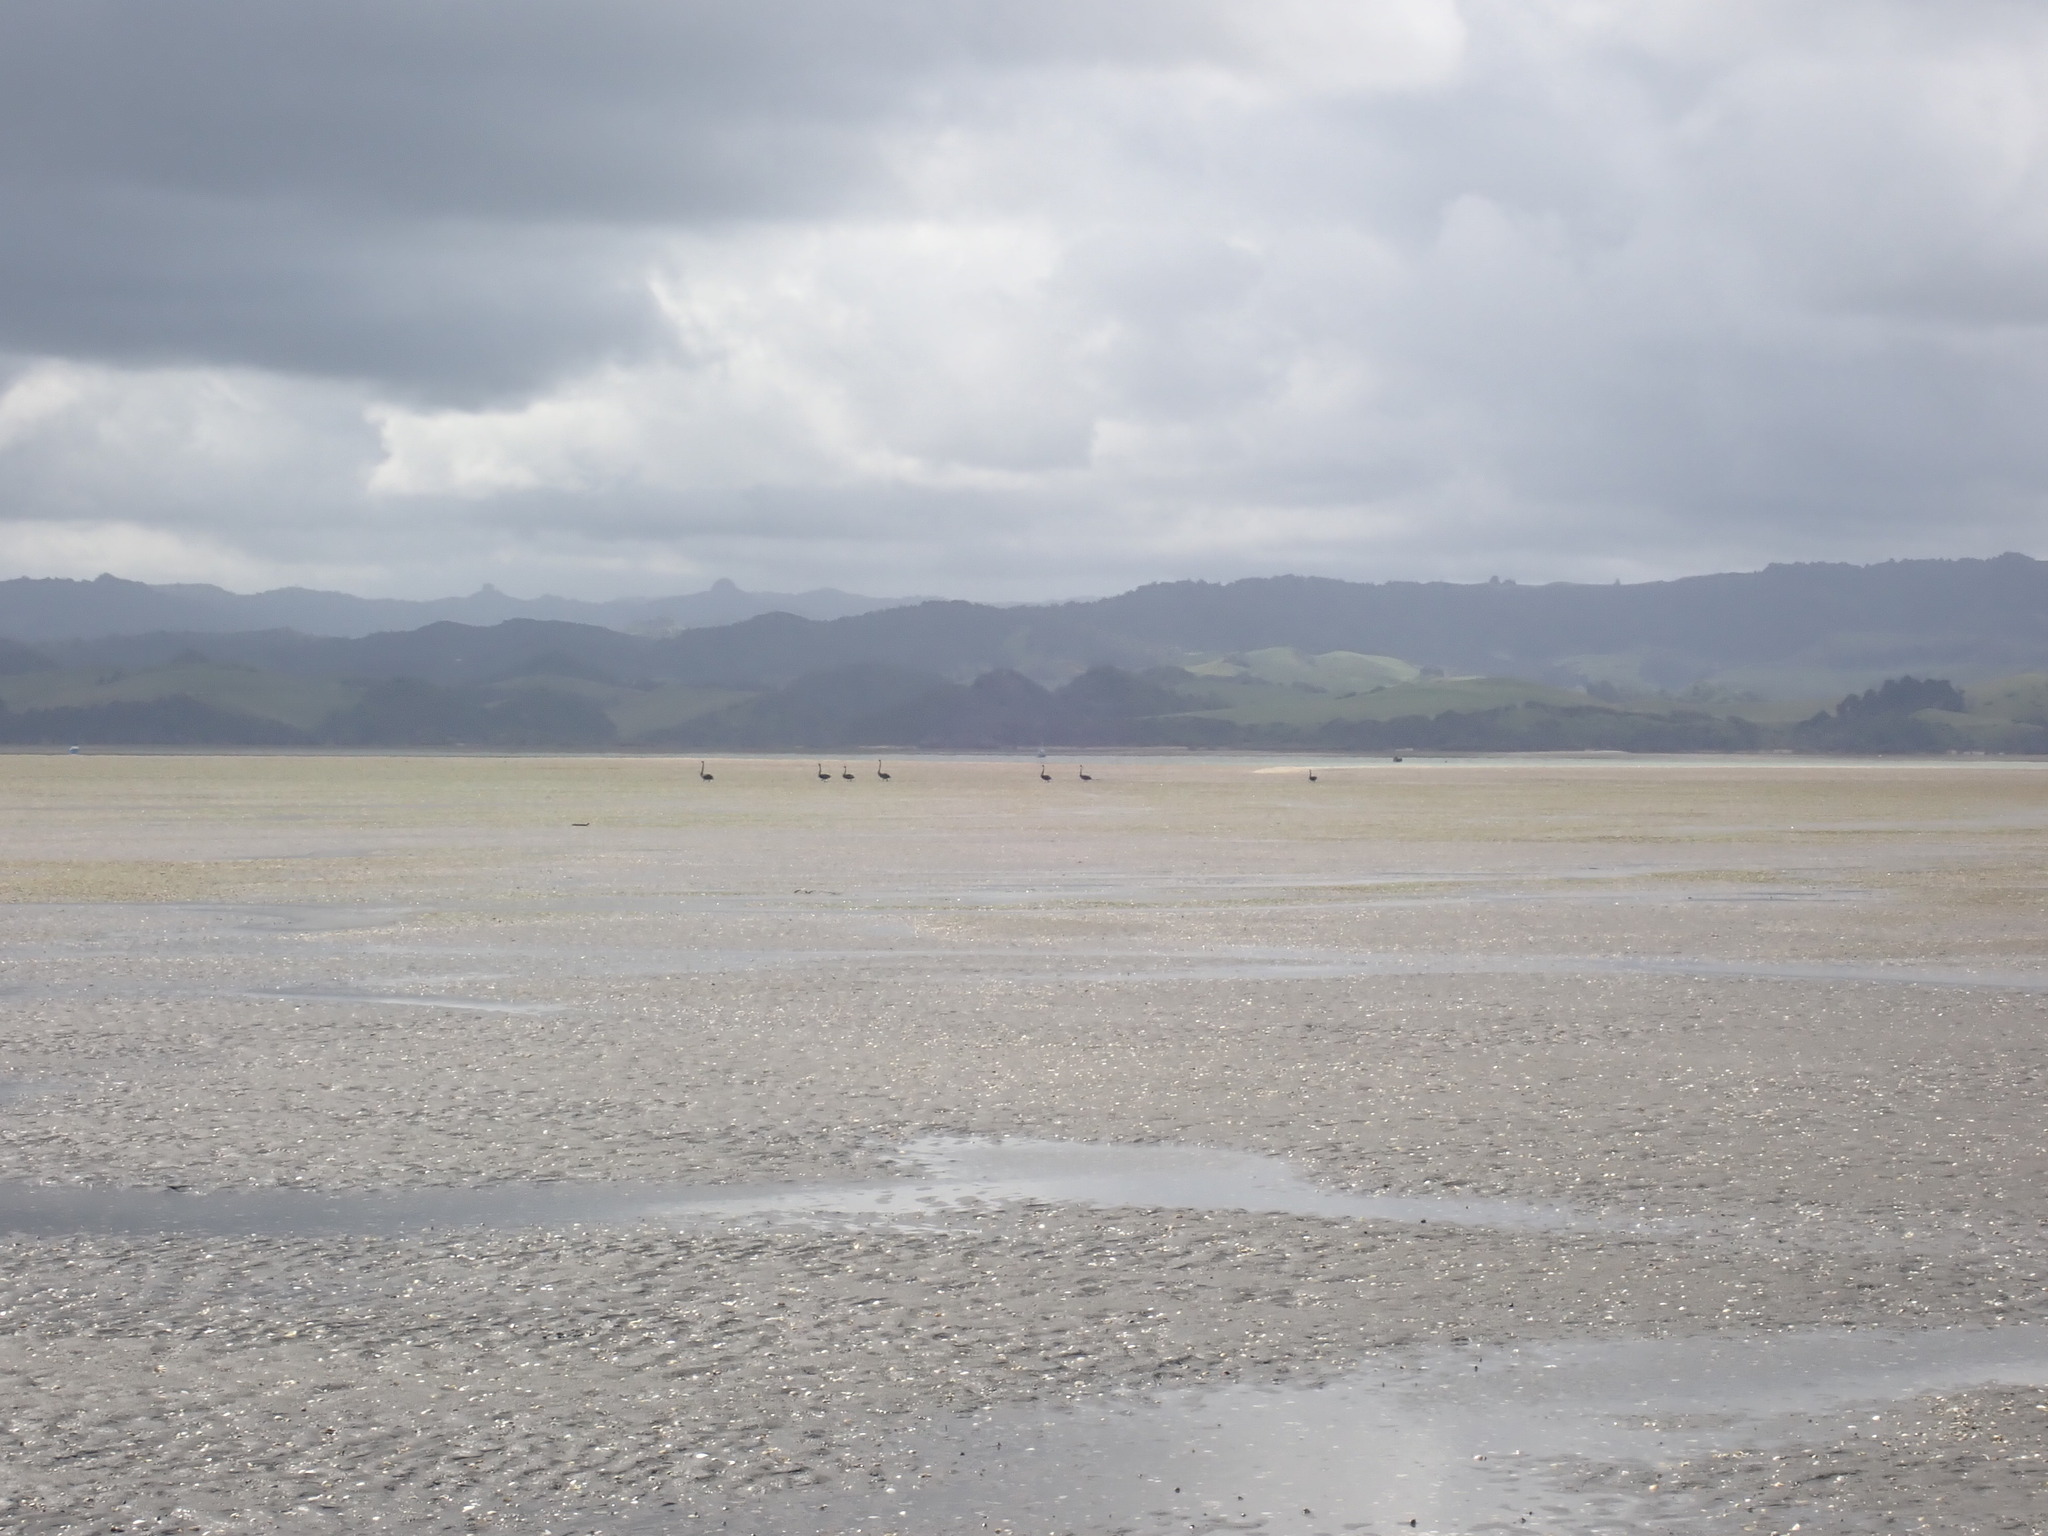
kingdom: Animalia
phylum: Chordata
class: Aves
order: Anseriformes
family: Anatidae
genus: Cygnus
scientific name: Cygnus atratus
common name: Black swan
